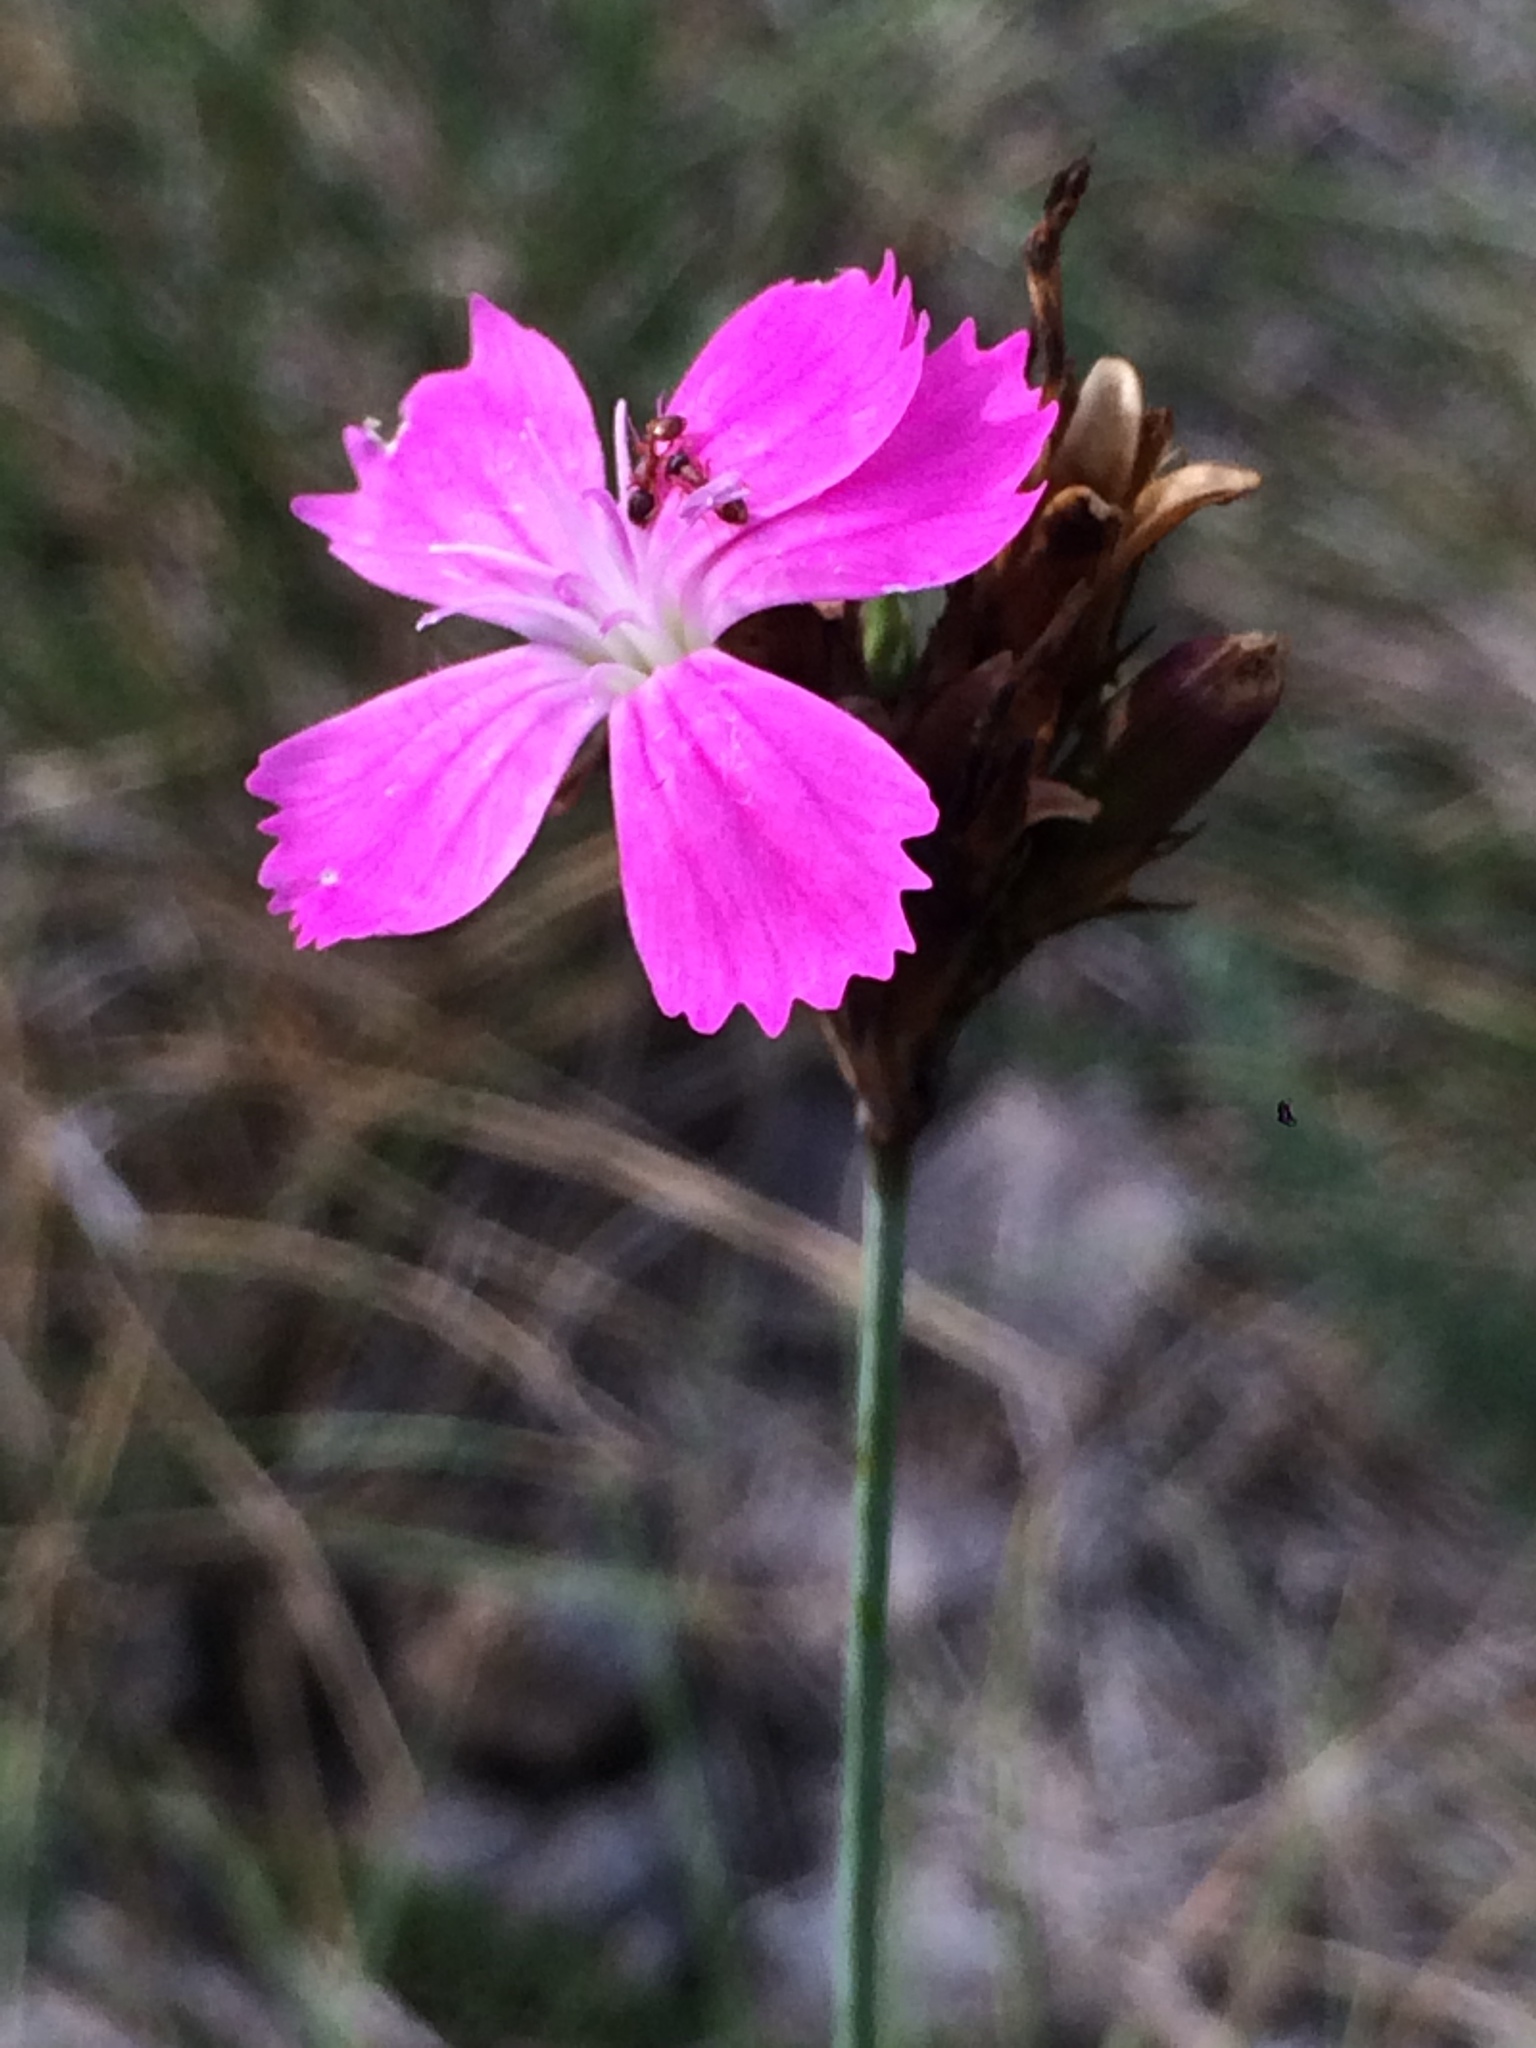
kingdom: Plantae
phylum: Tracheophyta
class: Magnoliopsida
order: Caryophyllales
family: Caryophyllaceae
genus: Dianthus
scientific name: Dianthus carthusianorum
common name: Carthusian pink
